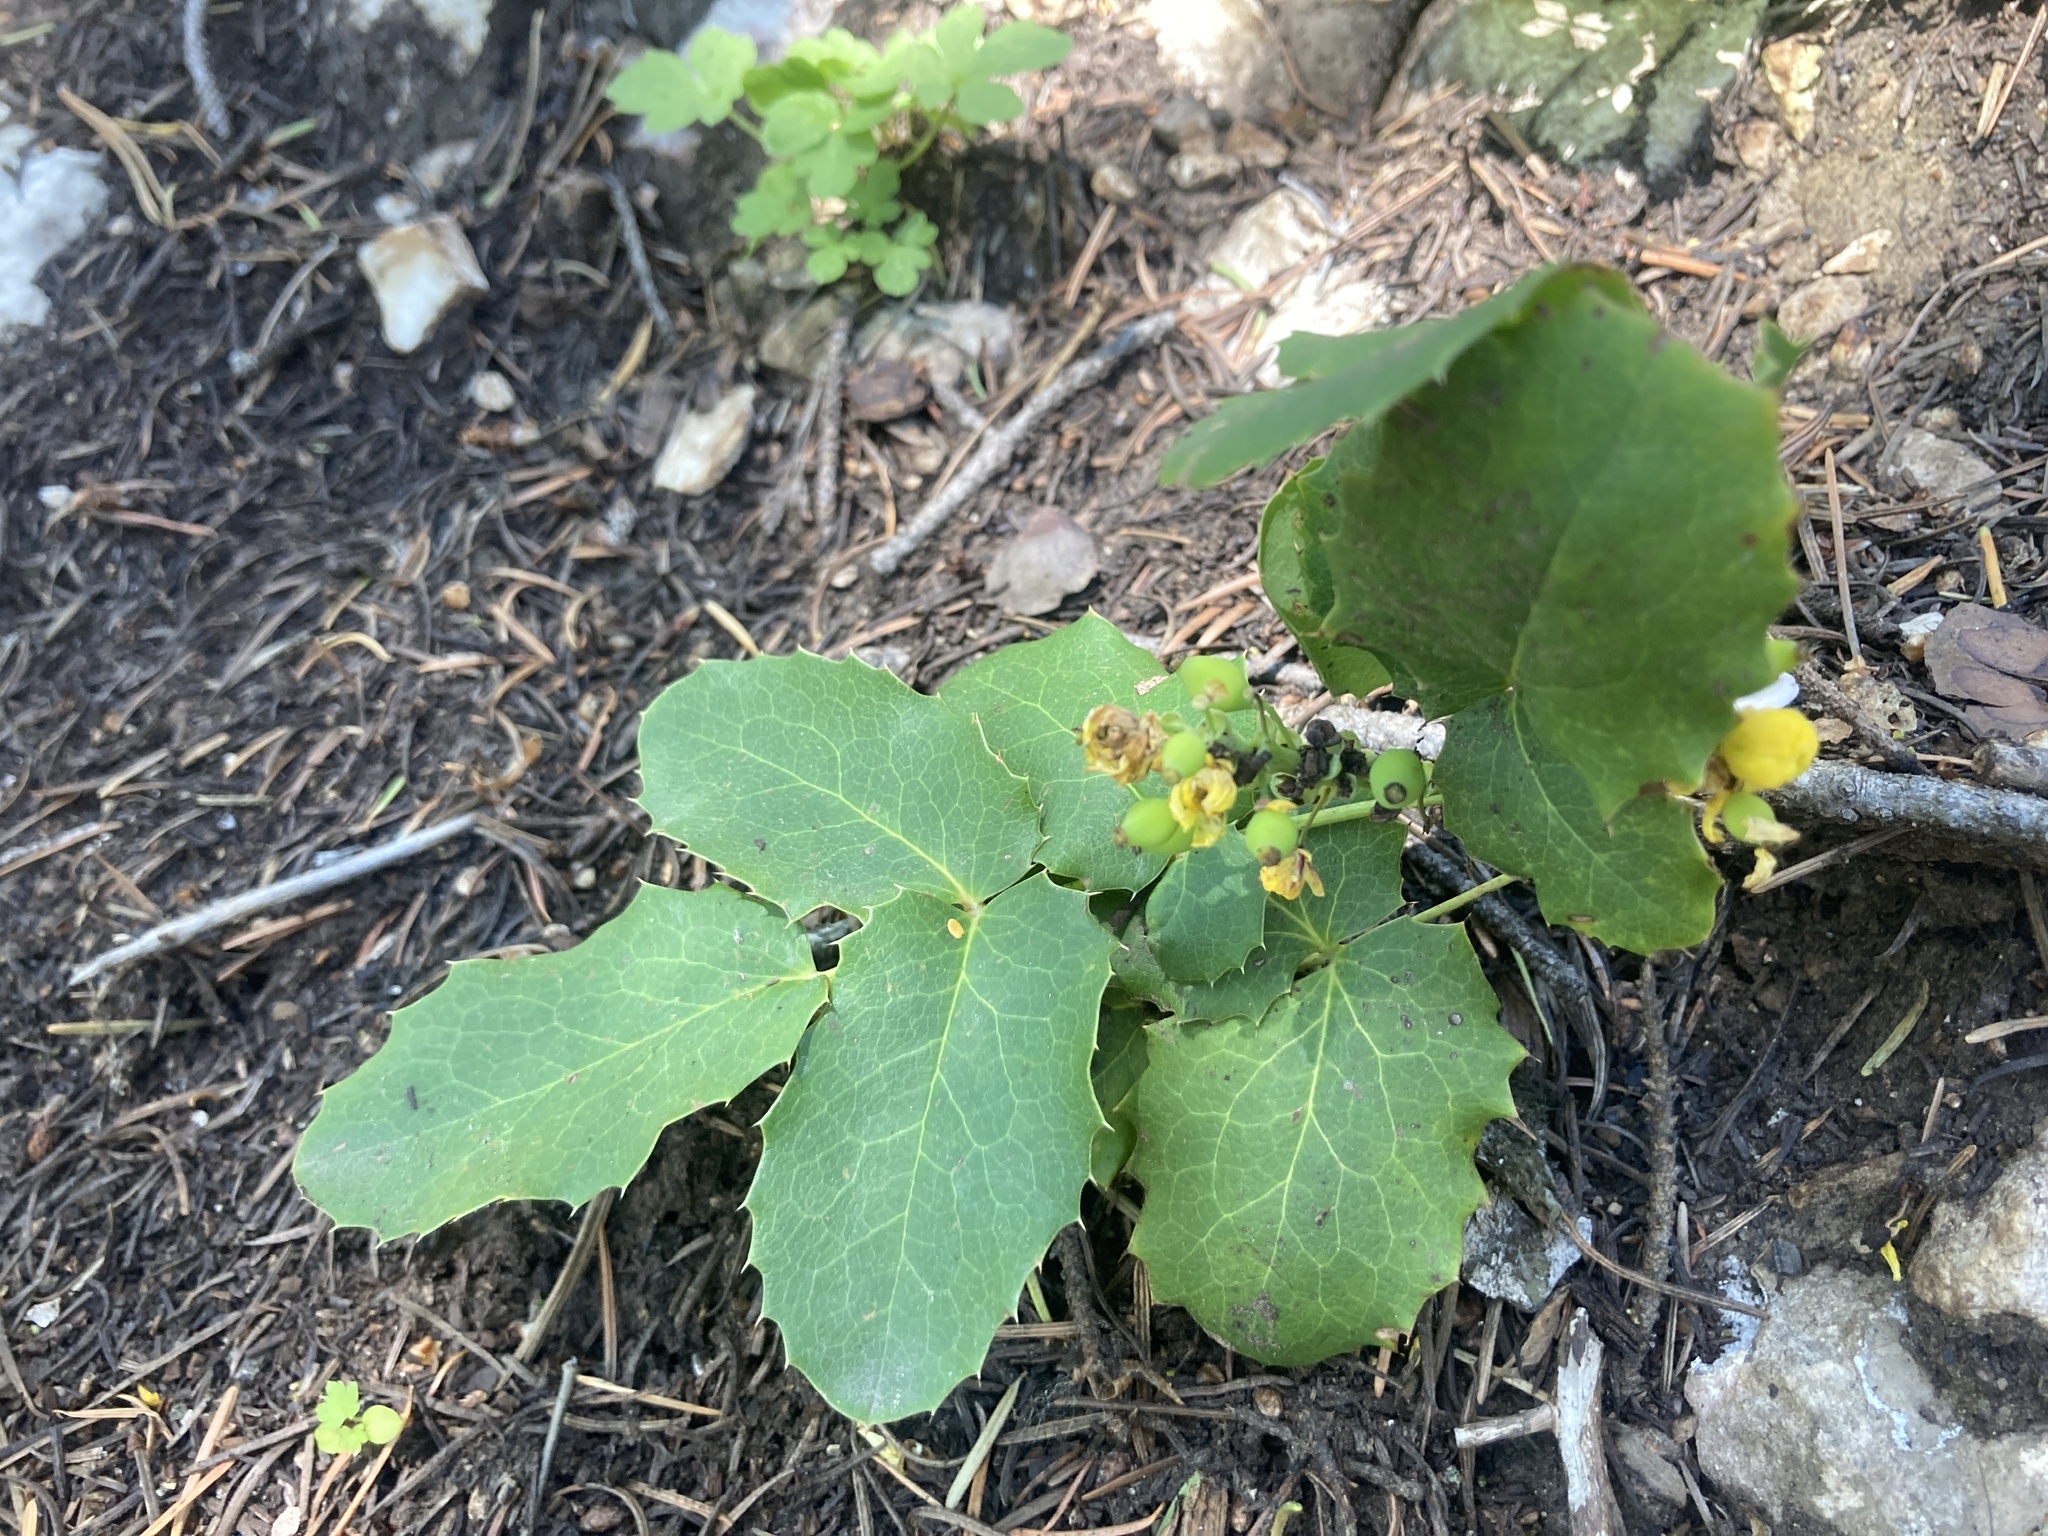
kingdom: Plantae
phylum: Tracheophyta
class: Magnoliopsida
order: Ranunculales
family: Berberidaceae
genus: Mahonia
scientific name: Mahonia repens
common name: Creeping oregon-grape
